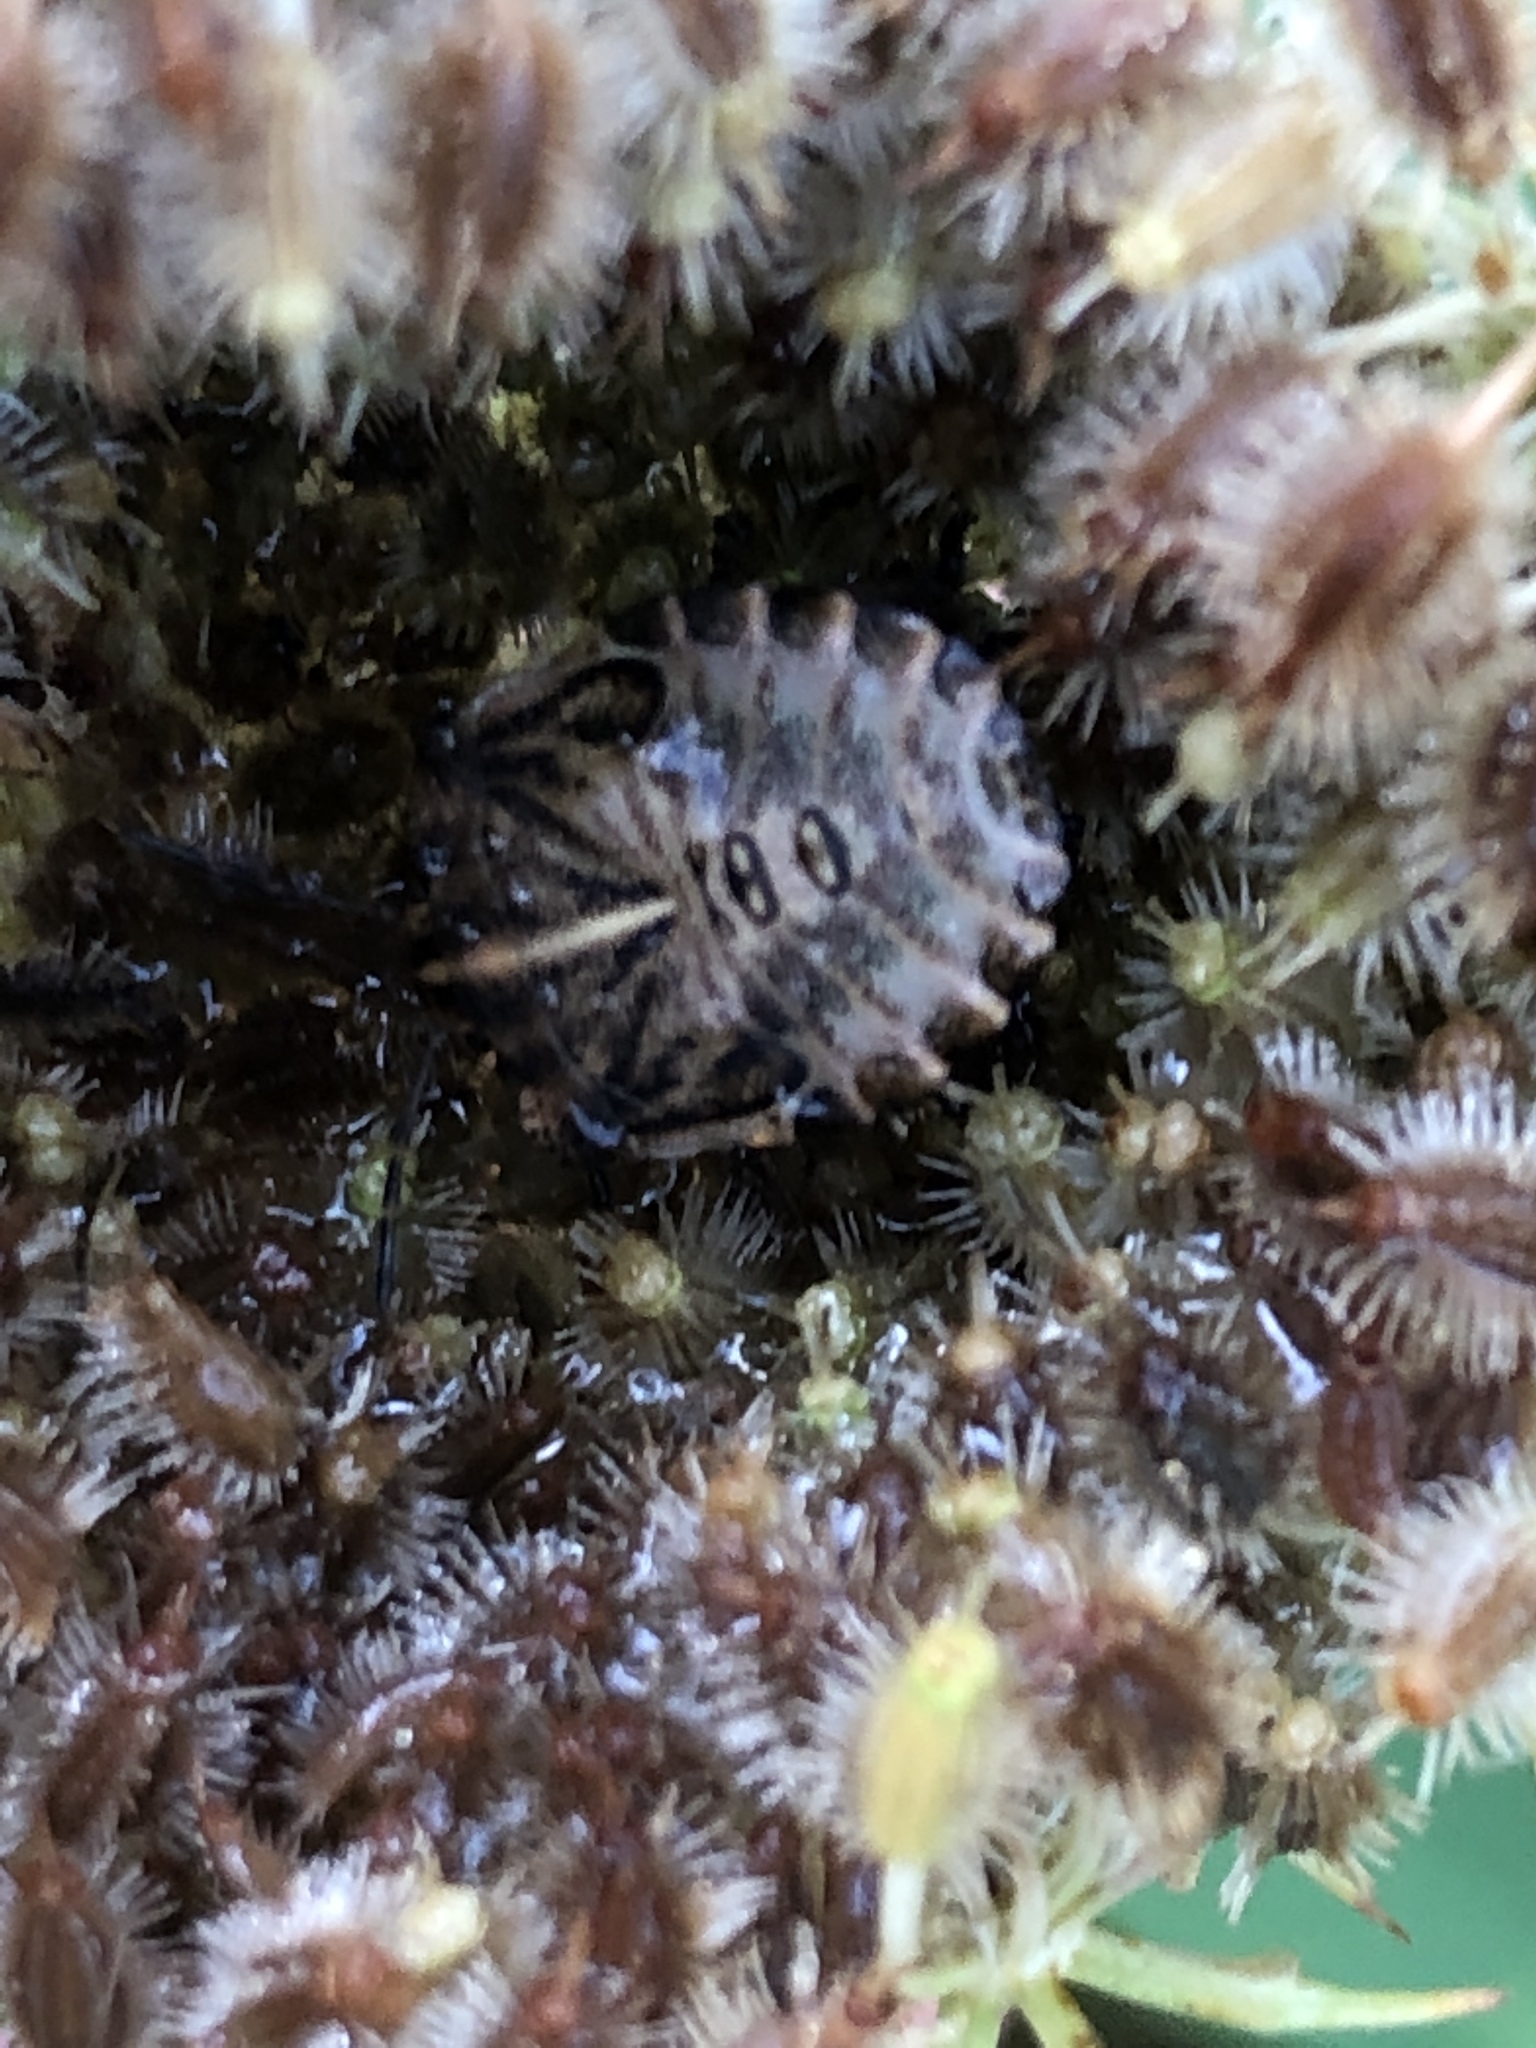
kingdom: Animalia
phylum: Arthropoda
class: Insecta
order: Hemiptera
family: Pentatomidae
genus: Graphosoma
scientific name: Graphosoma italicum
